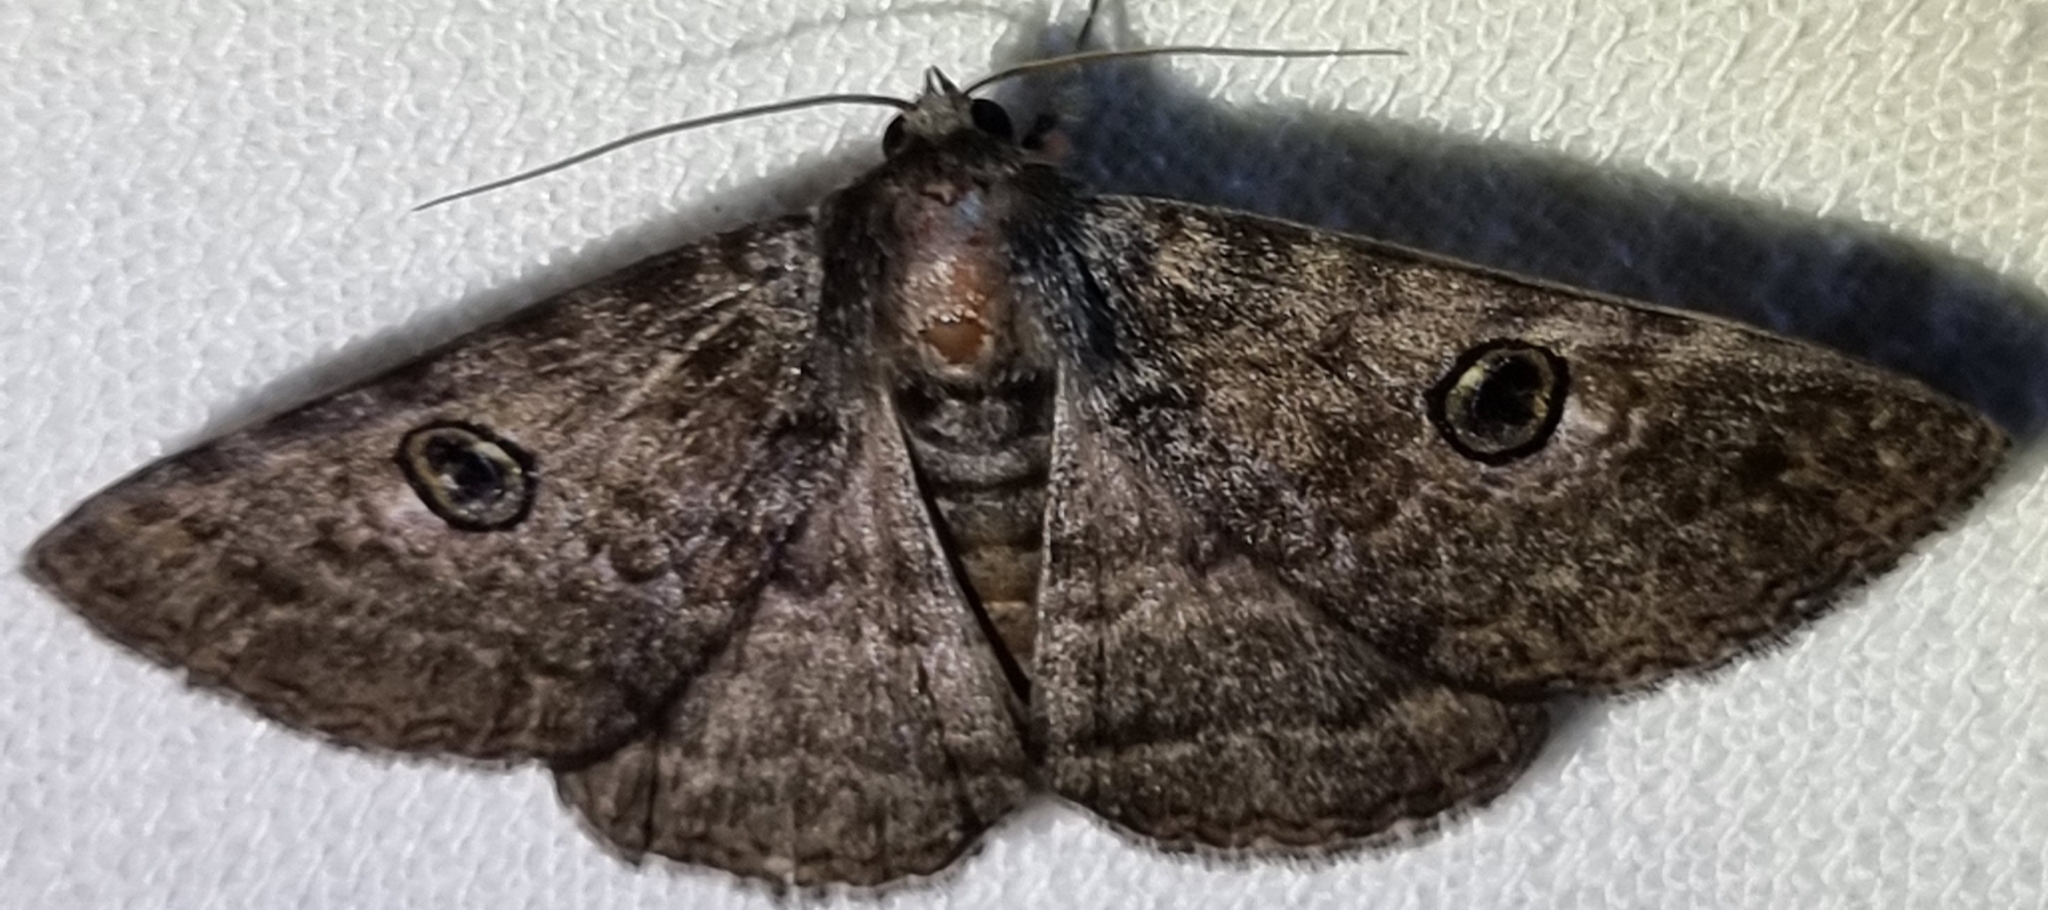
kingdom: Animalia
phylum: Arthropoda
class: Insecta
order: Lepidoptera
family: Erebidae
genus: Donuca
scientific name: Donuca castalia
